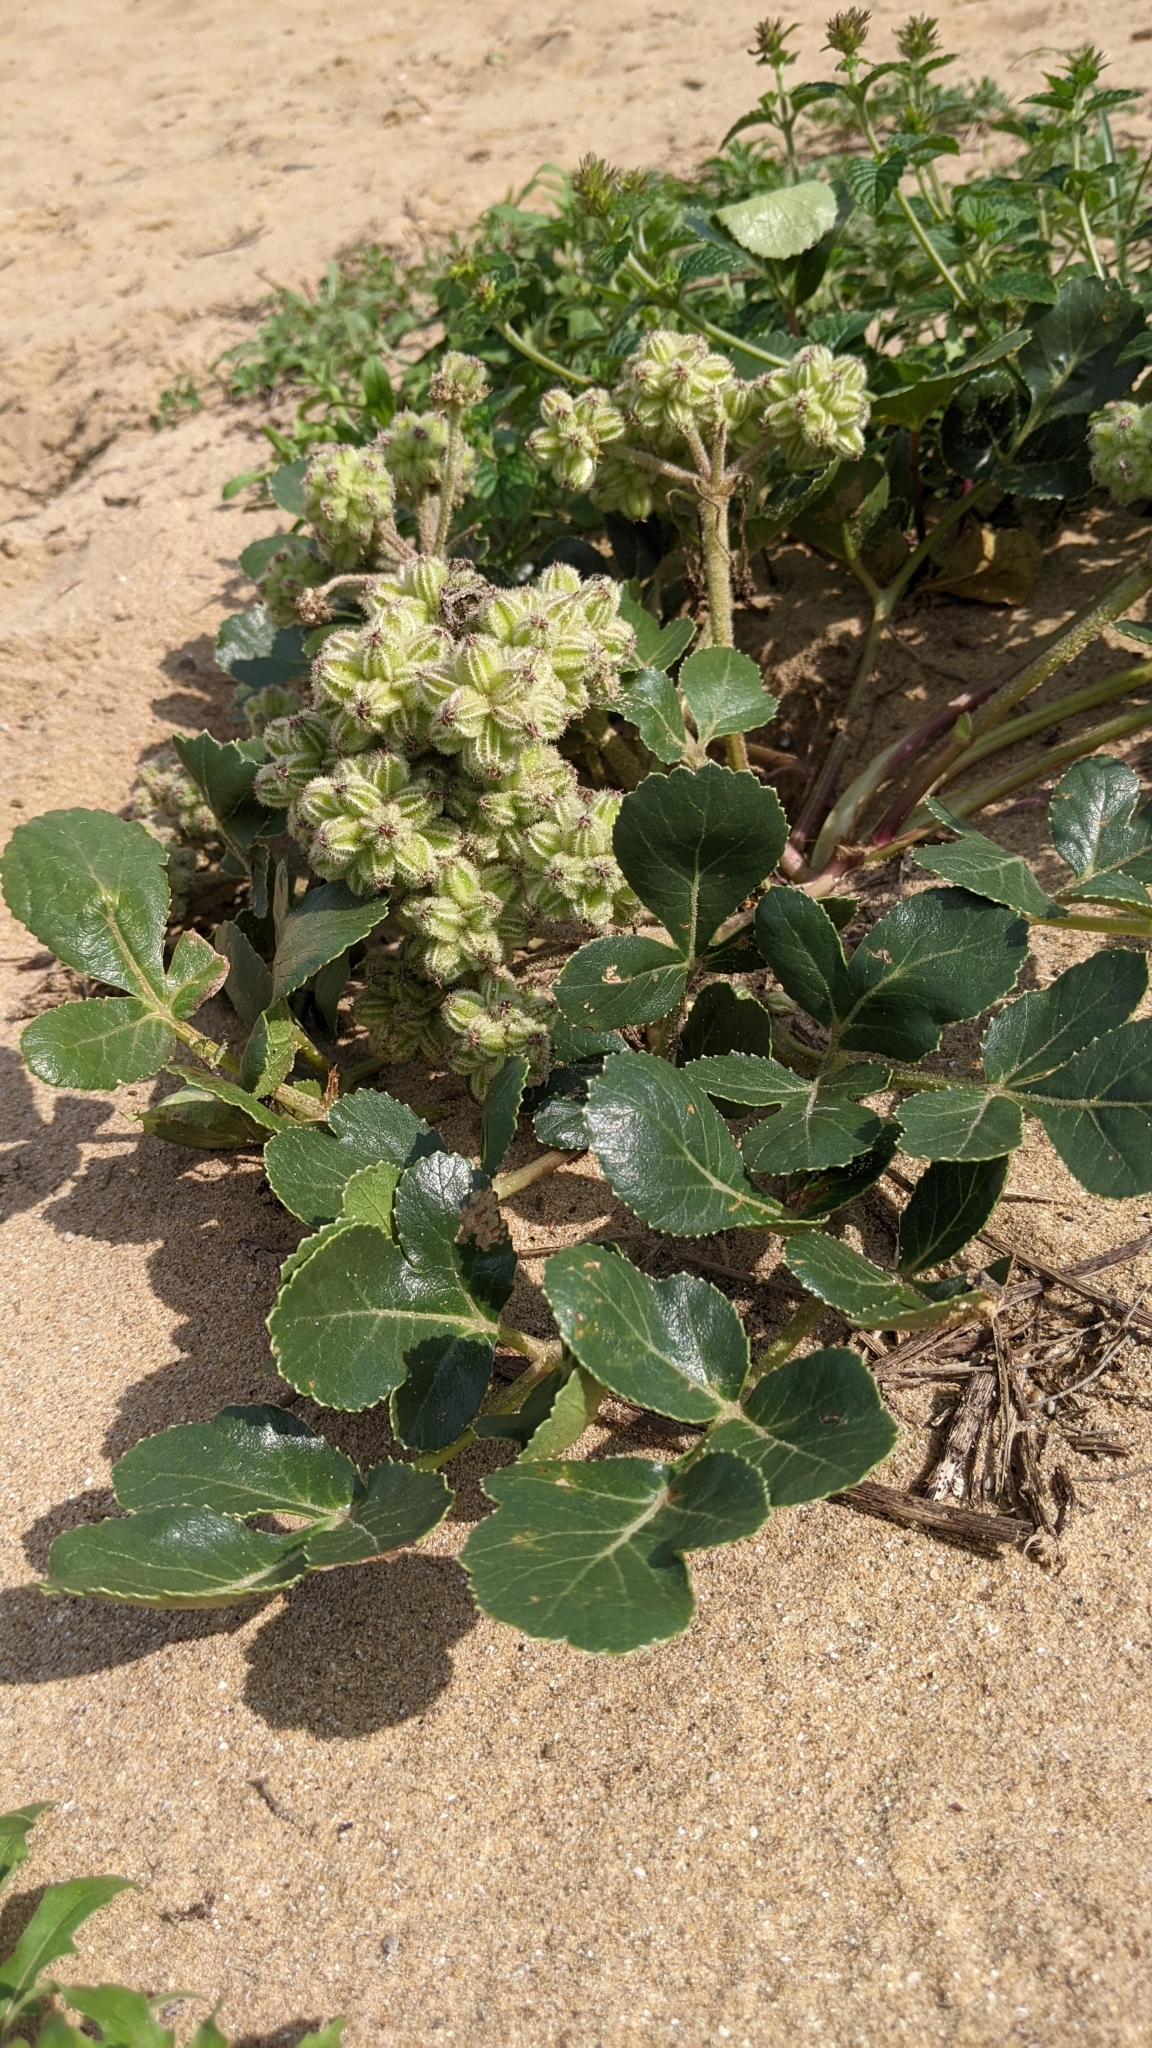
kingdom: Plantae
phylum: Tracheophyta
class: Magnoliopsida
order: Apiales
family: Apiaceae
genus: Glehnia
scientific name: Glehnia littoralis
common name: Beach silvertop
